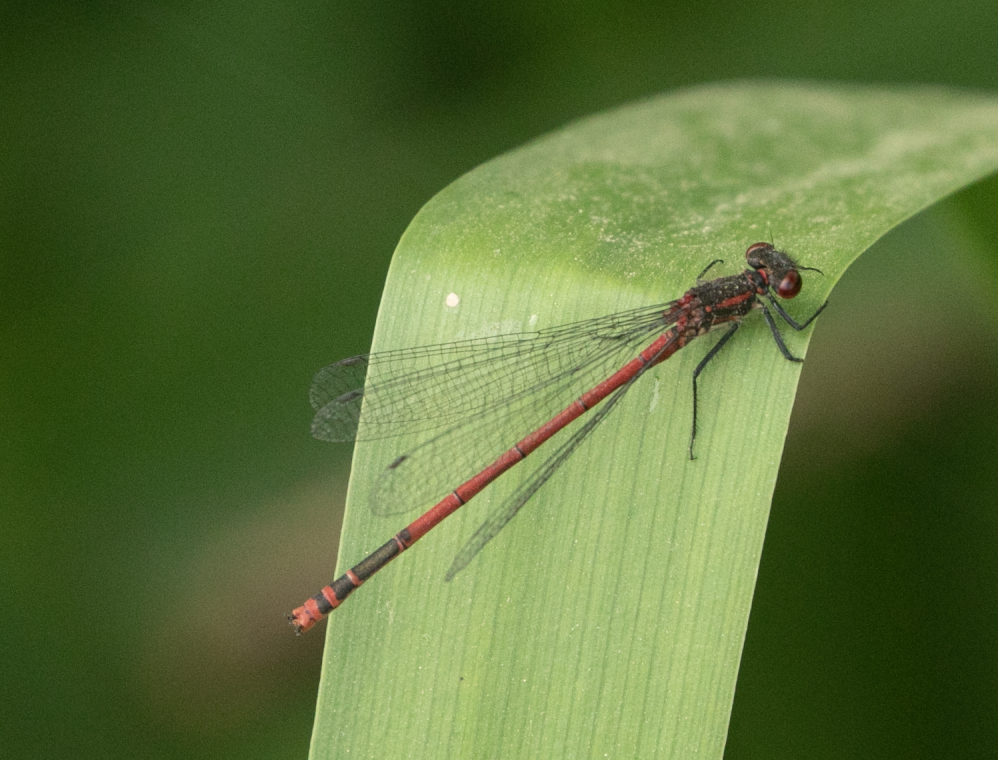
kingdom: Animalia
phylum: Arthropoda
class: Insecta
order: Odonata
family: Coenagrionidae
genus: Pyrrhosoma
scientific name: Pyrrhosoma nymphula
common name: Large red damsel
